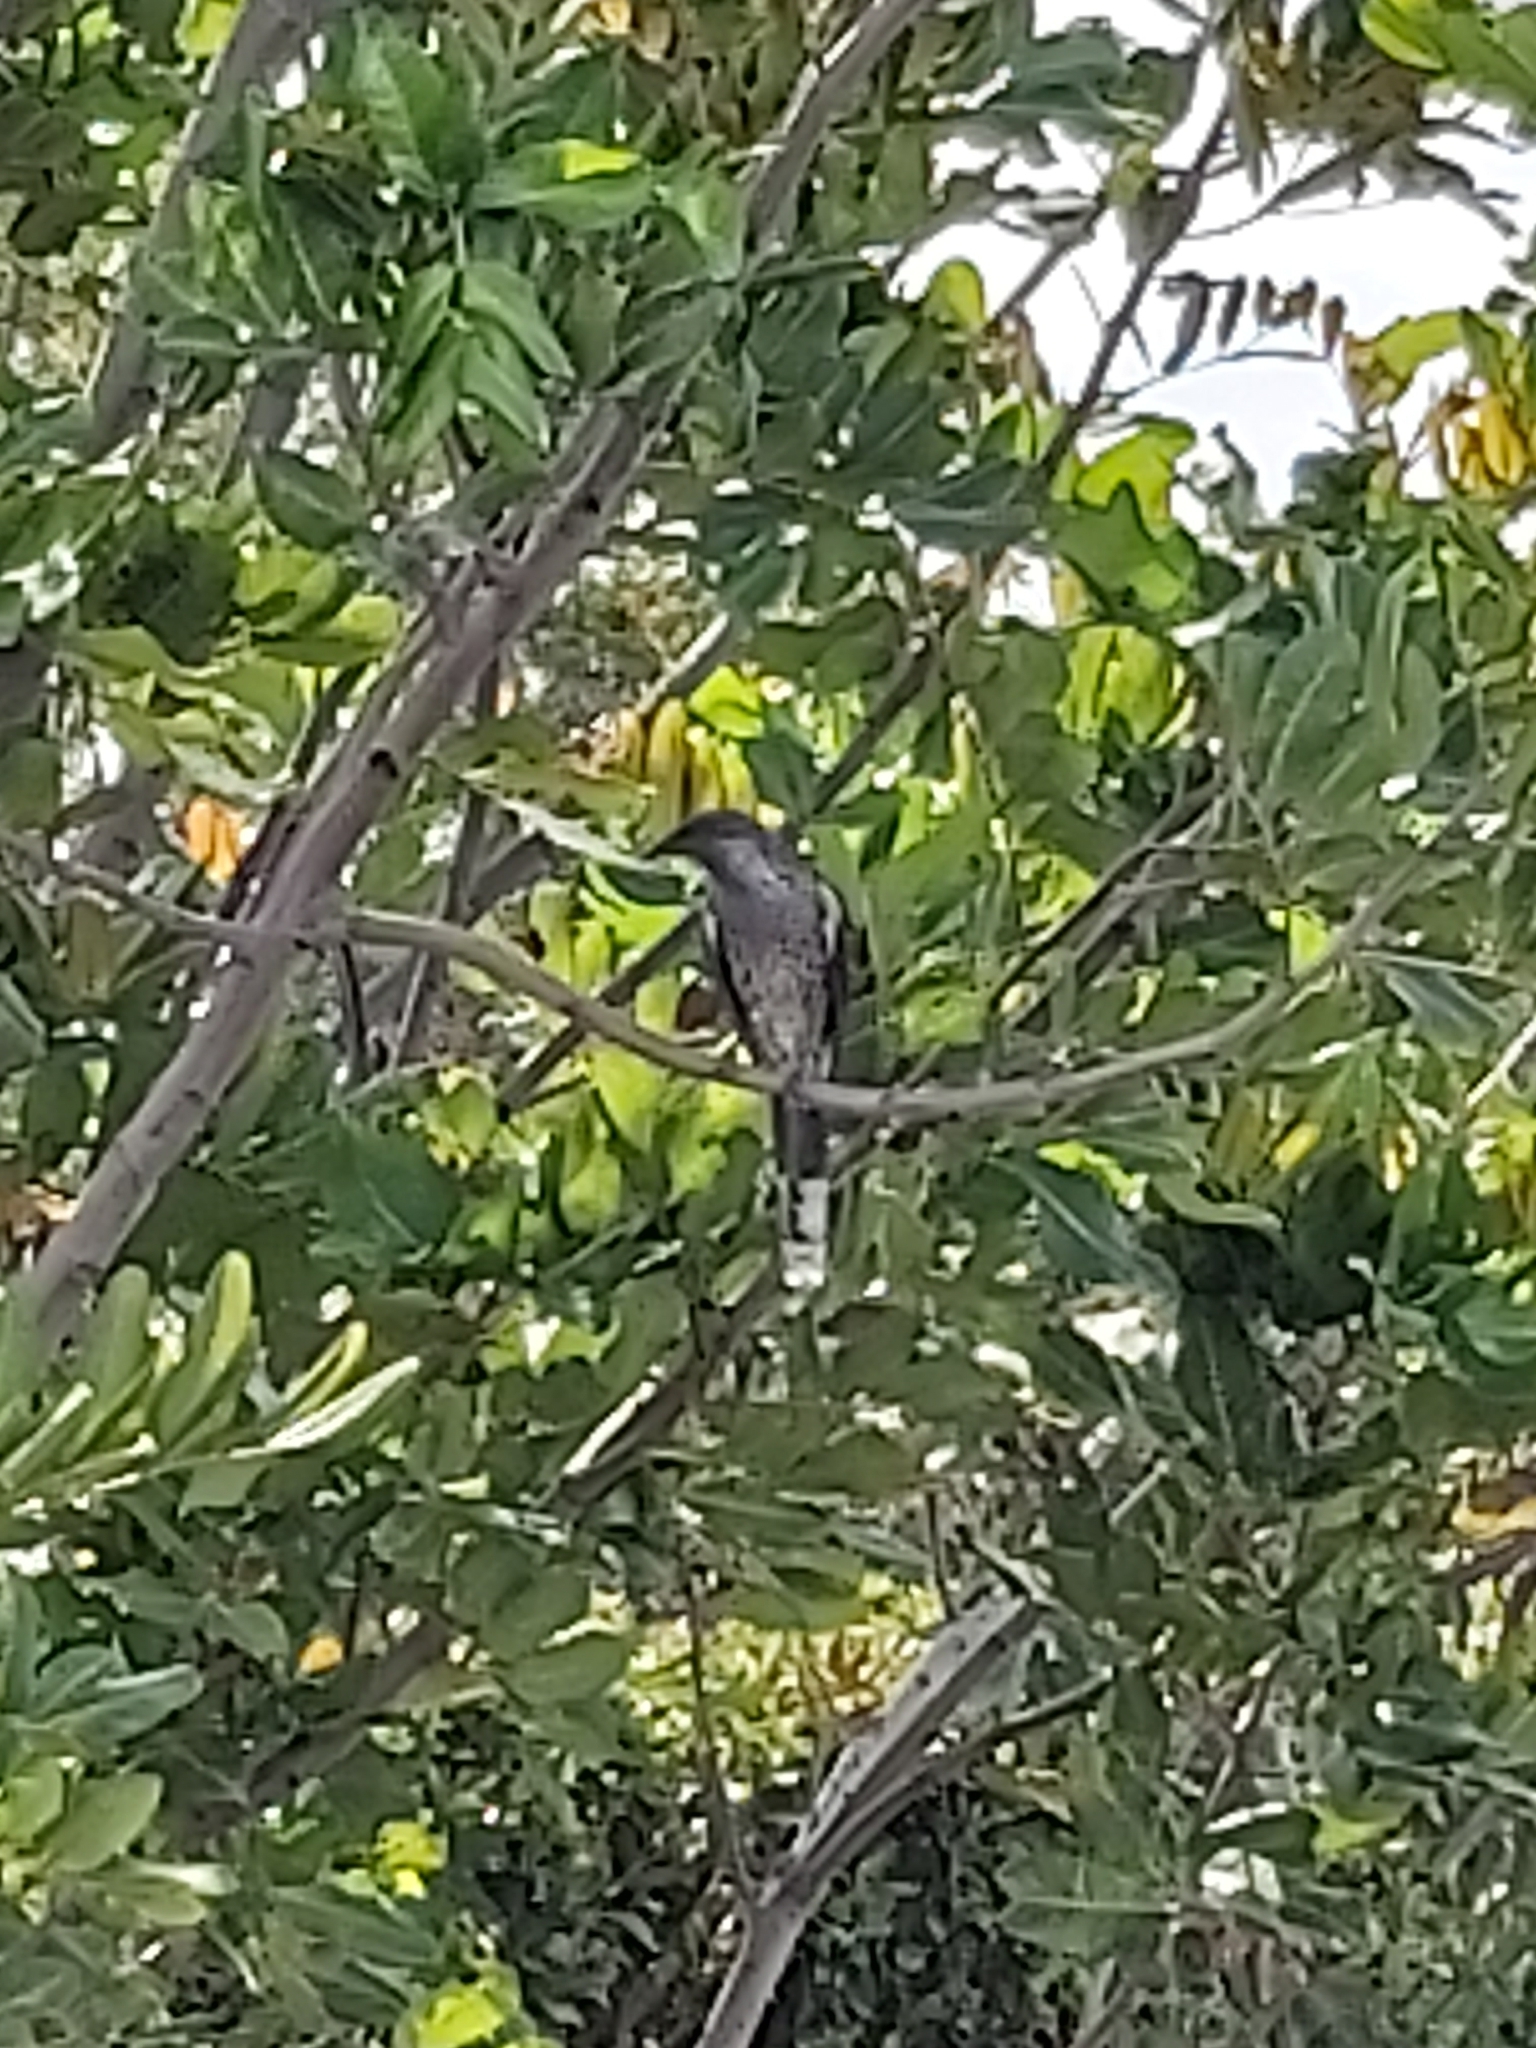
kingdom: Animalia
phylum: Chordata
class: Aves
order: Passeriformes
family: Meliphagidae
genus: Anthochaera
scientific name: Anthochaera chrysoptera
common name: Little wattlebird
